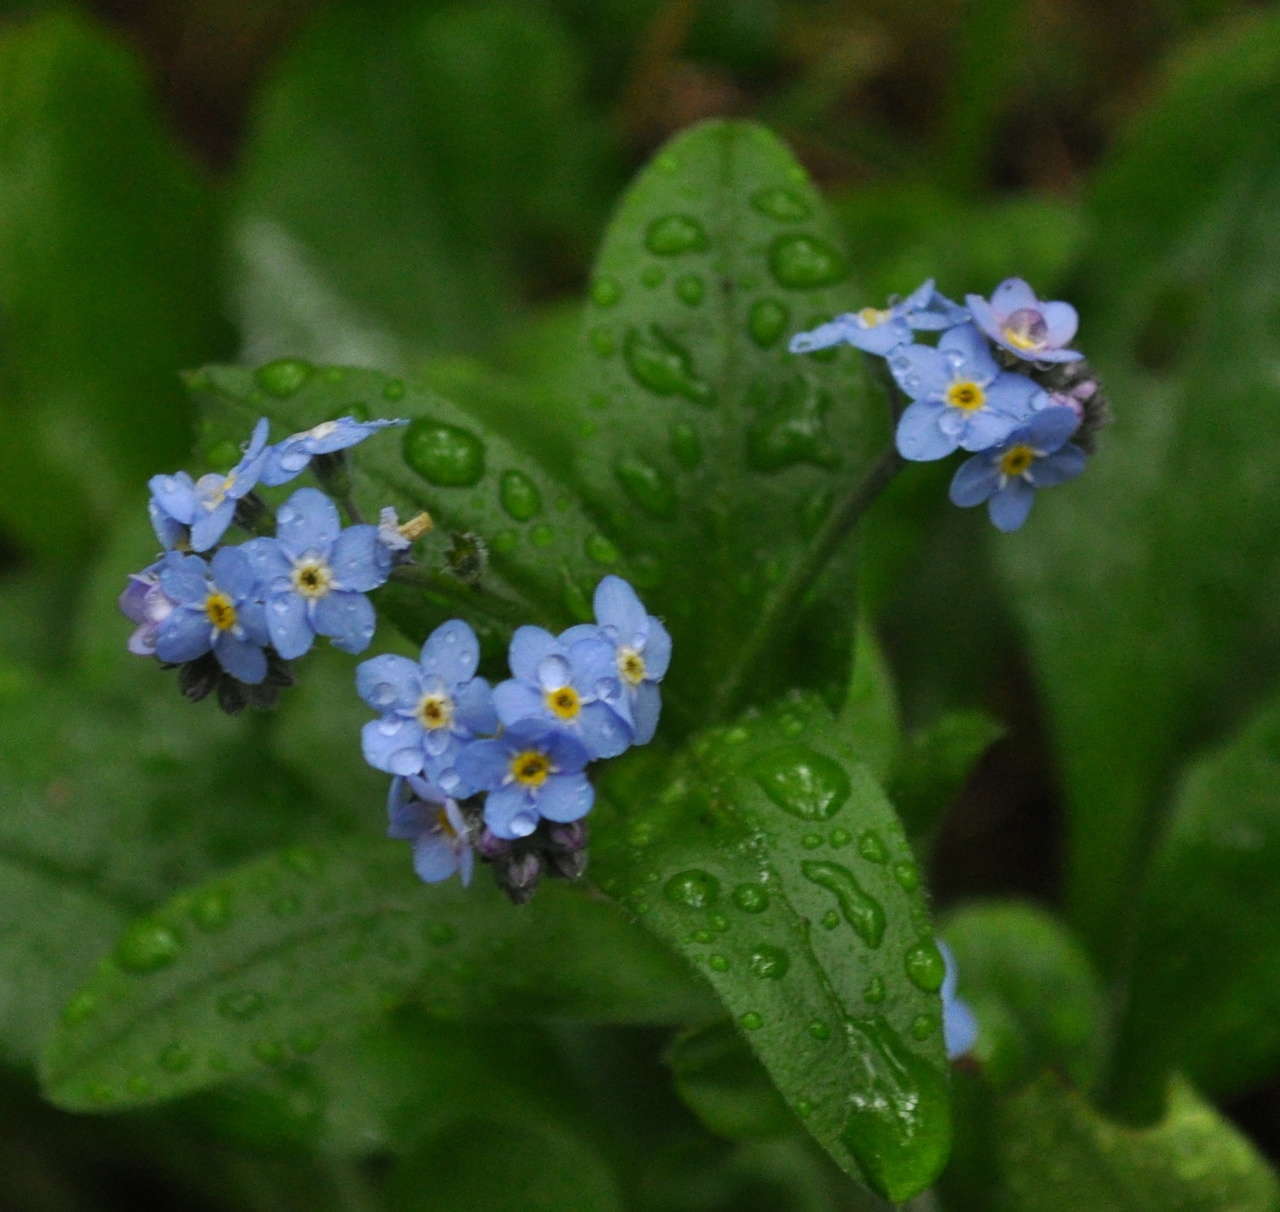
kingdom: Plantae
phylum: Tracheophyta
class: Magnoliopsida
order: Boraginales
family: Boraginaceae
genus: Myosotis
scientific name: Myosotis sylvatica
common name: Wood forget-me-not
